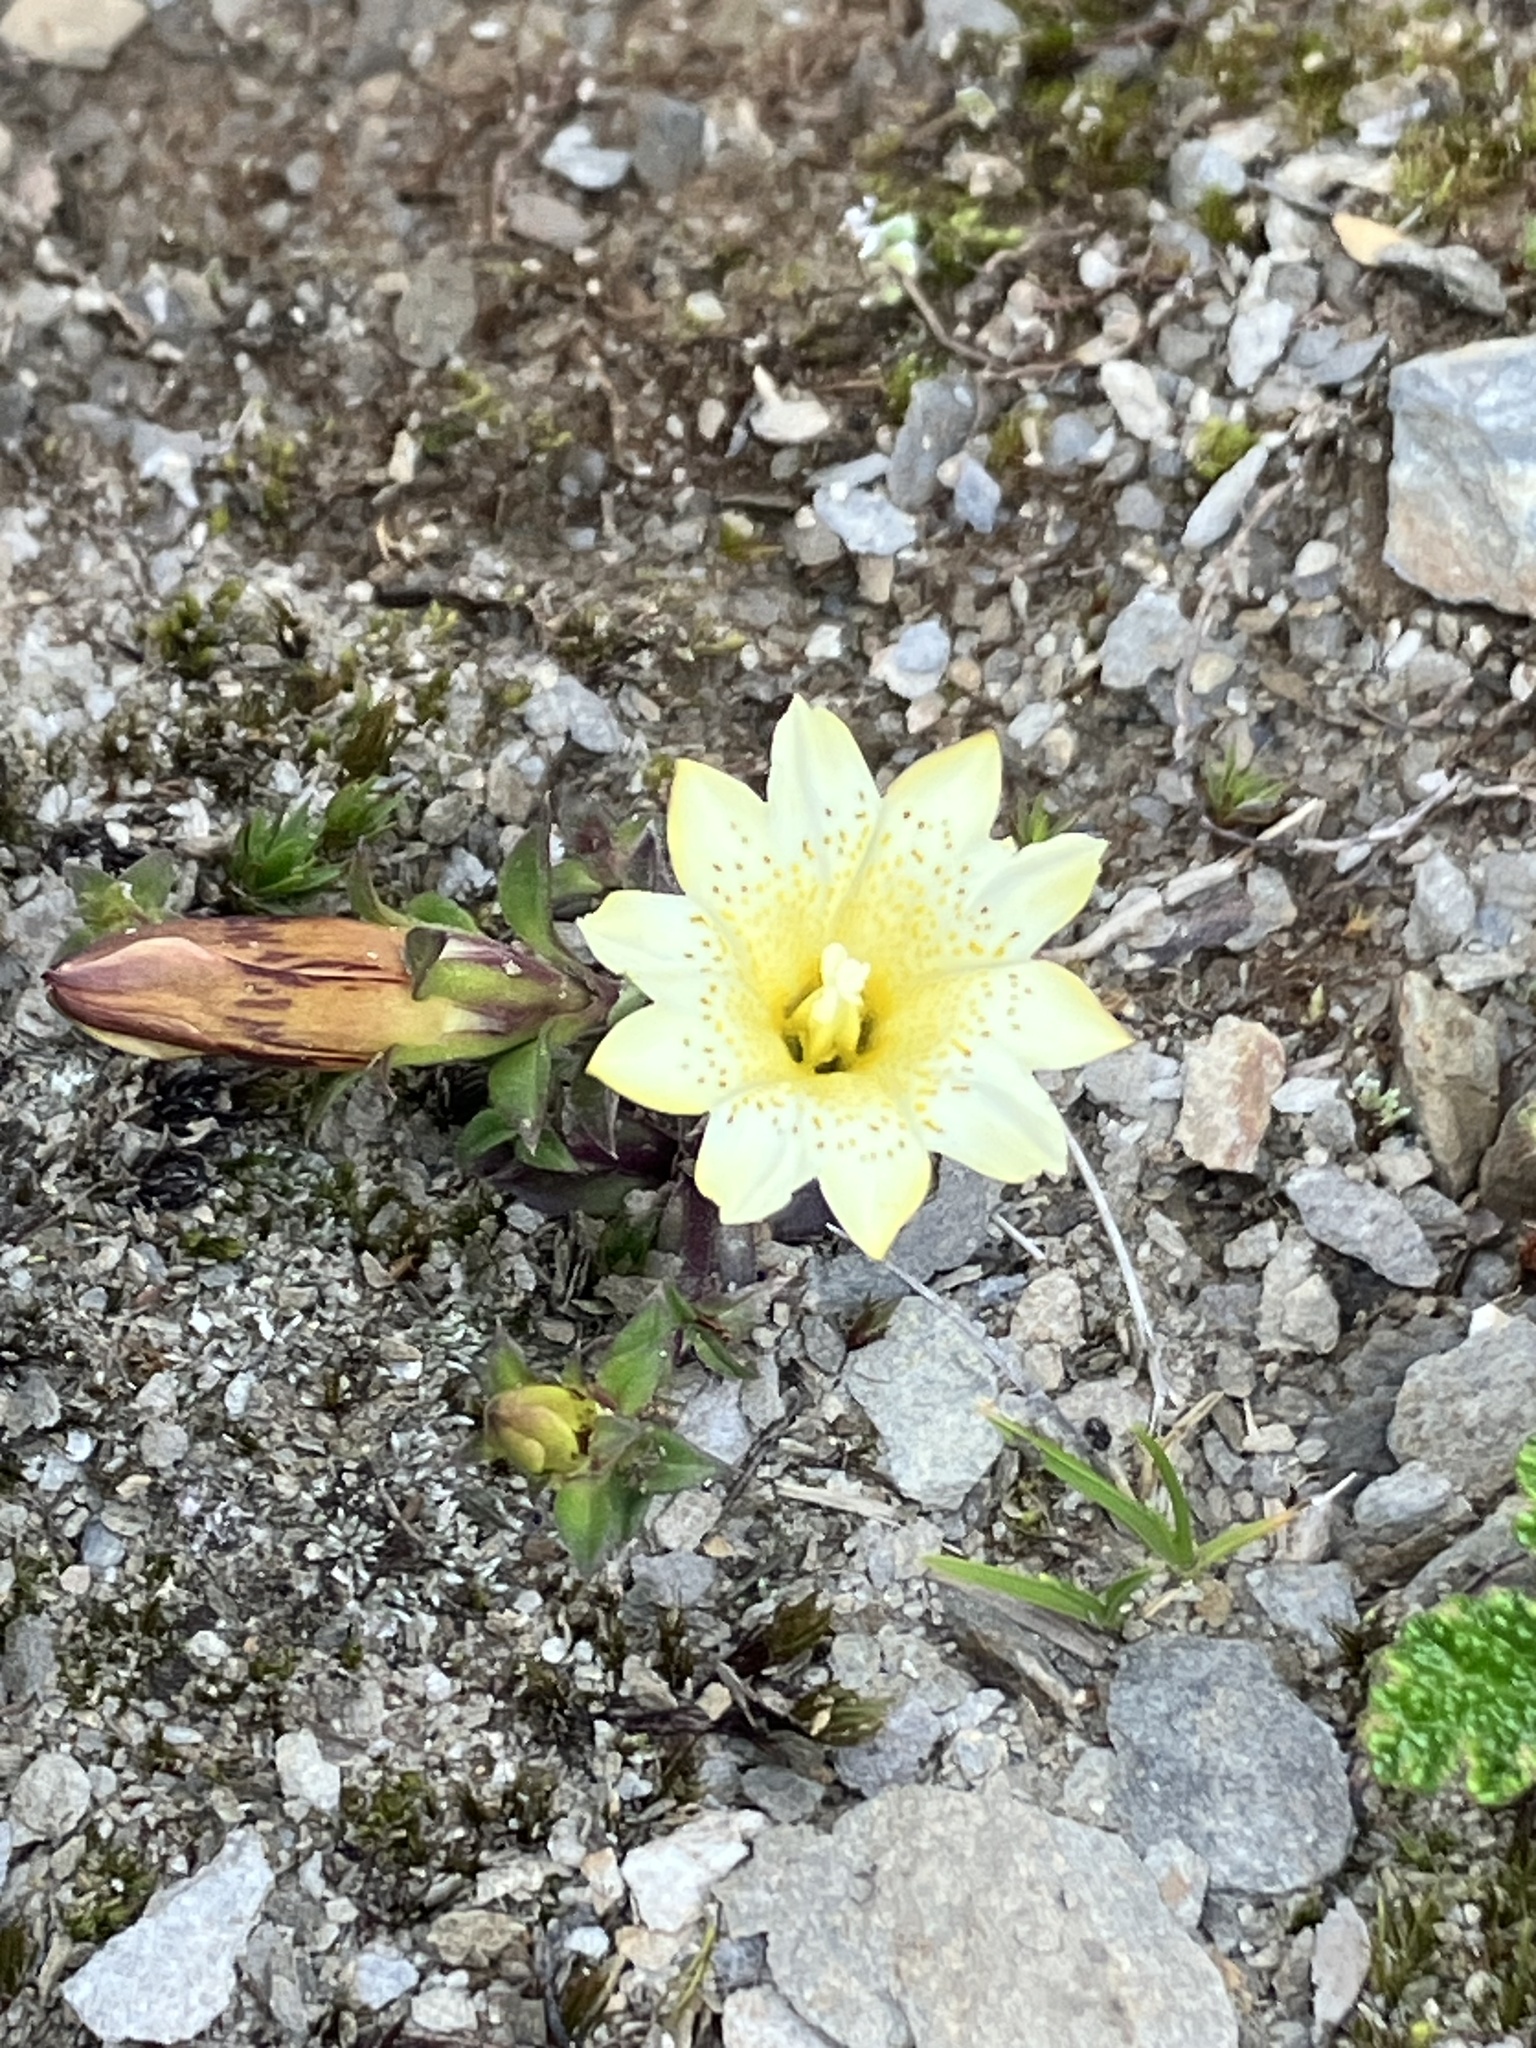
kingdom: Plantae
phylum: Tracheophyta
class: Magnoliopsida
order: Gentianales
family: Gentianaceae
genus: Gentiana
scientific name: Gentiana scabrida
